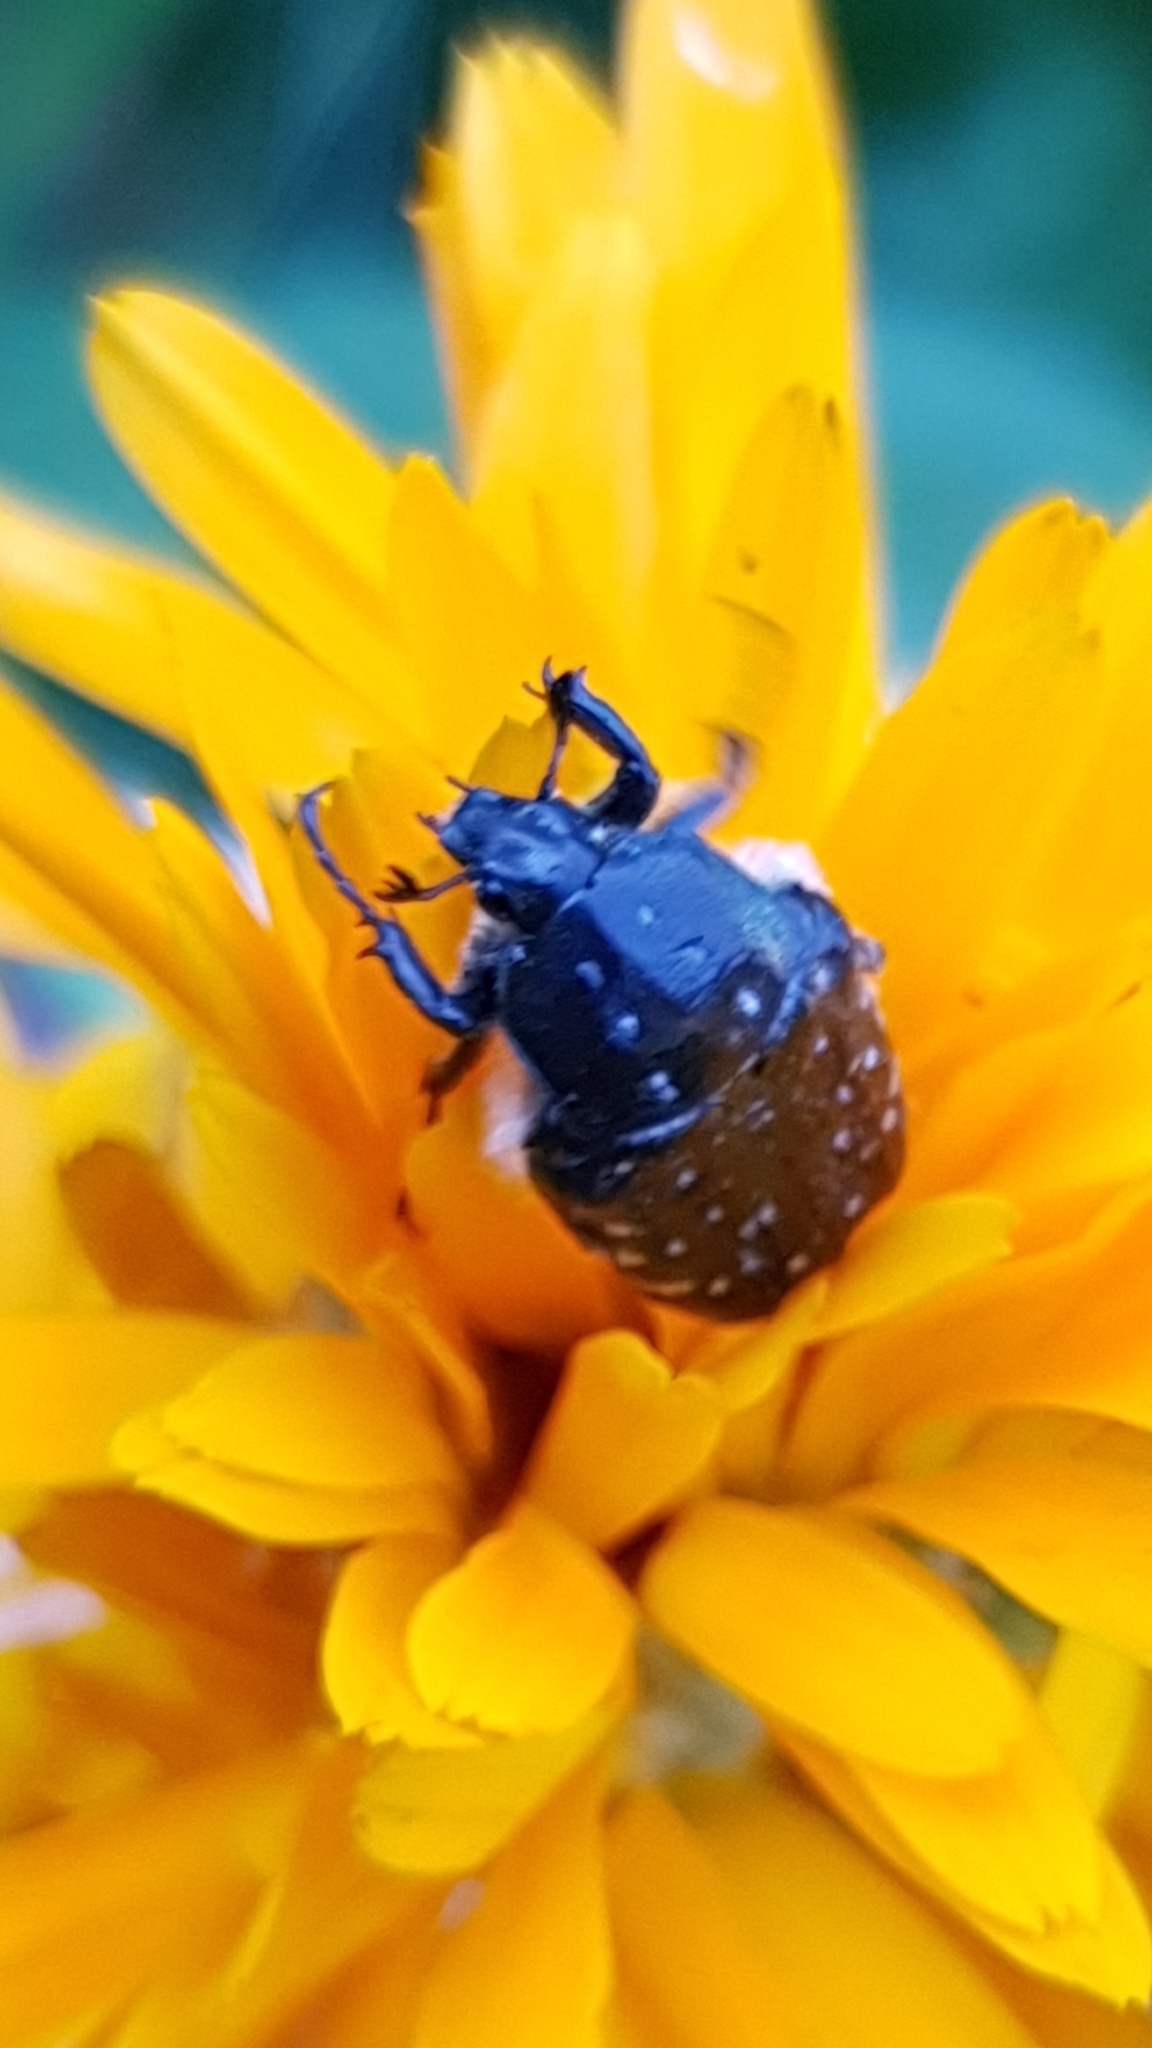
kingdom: Animalia
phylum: Arthropoda
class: Insecta
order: Coleoptera
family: Scarabaeidae
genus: Oxythyrea
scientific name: Oxythyrea funesta
